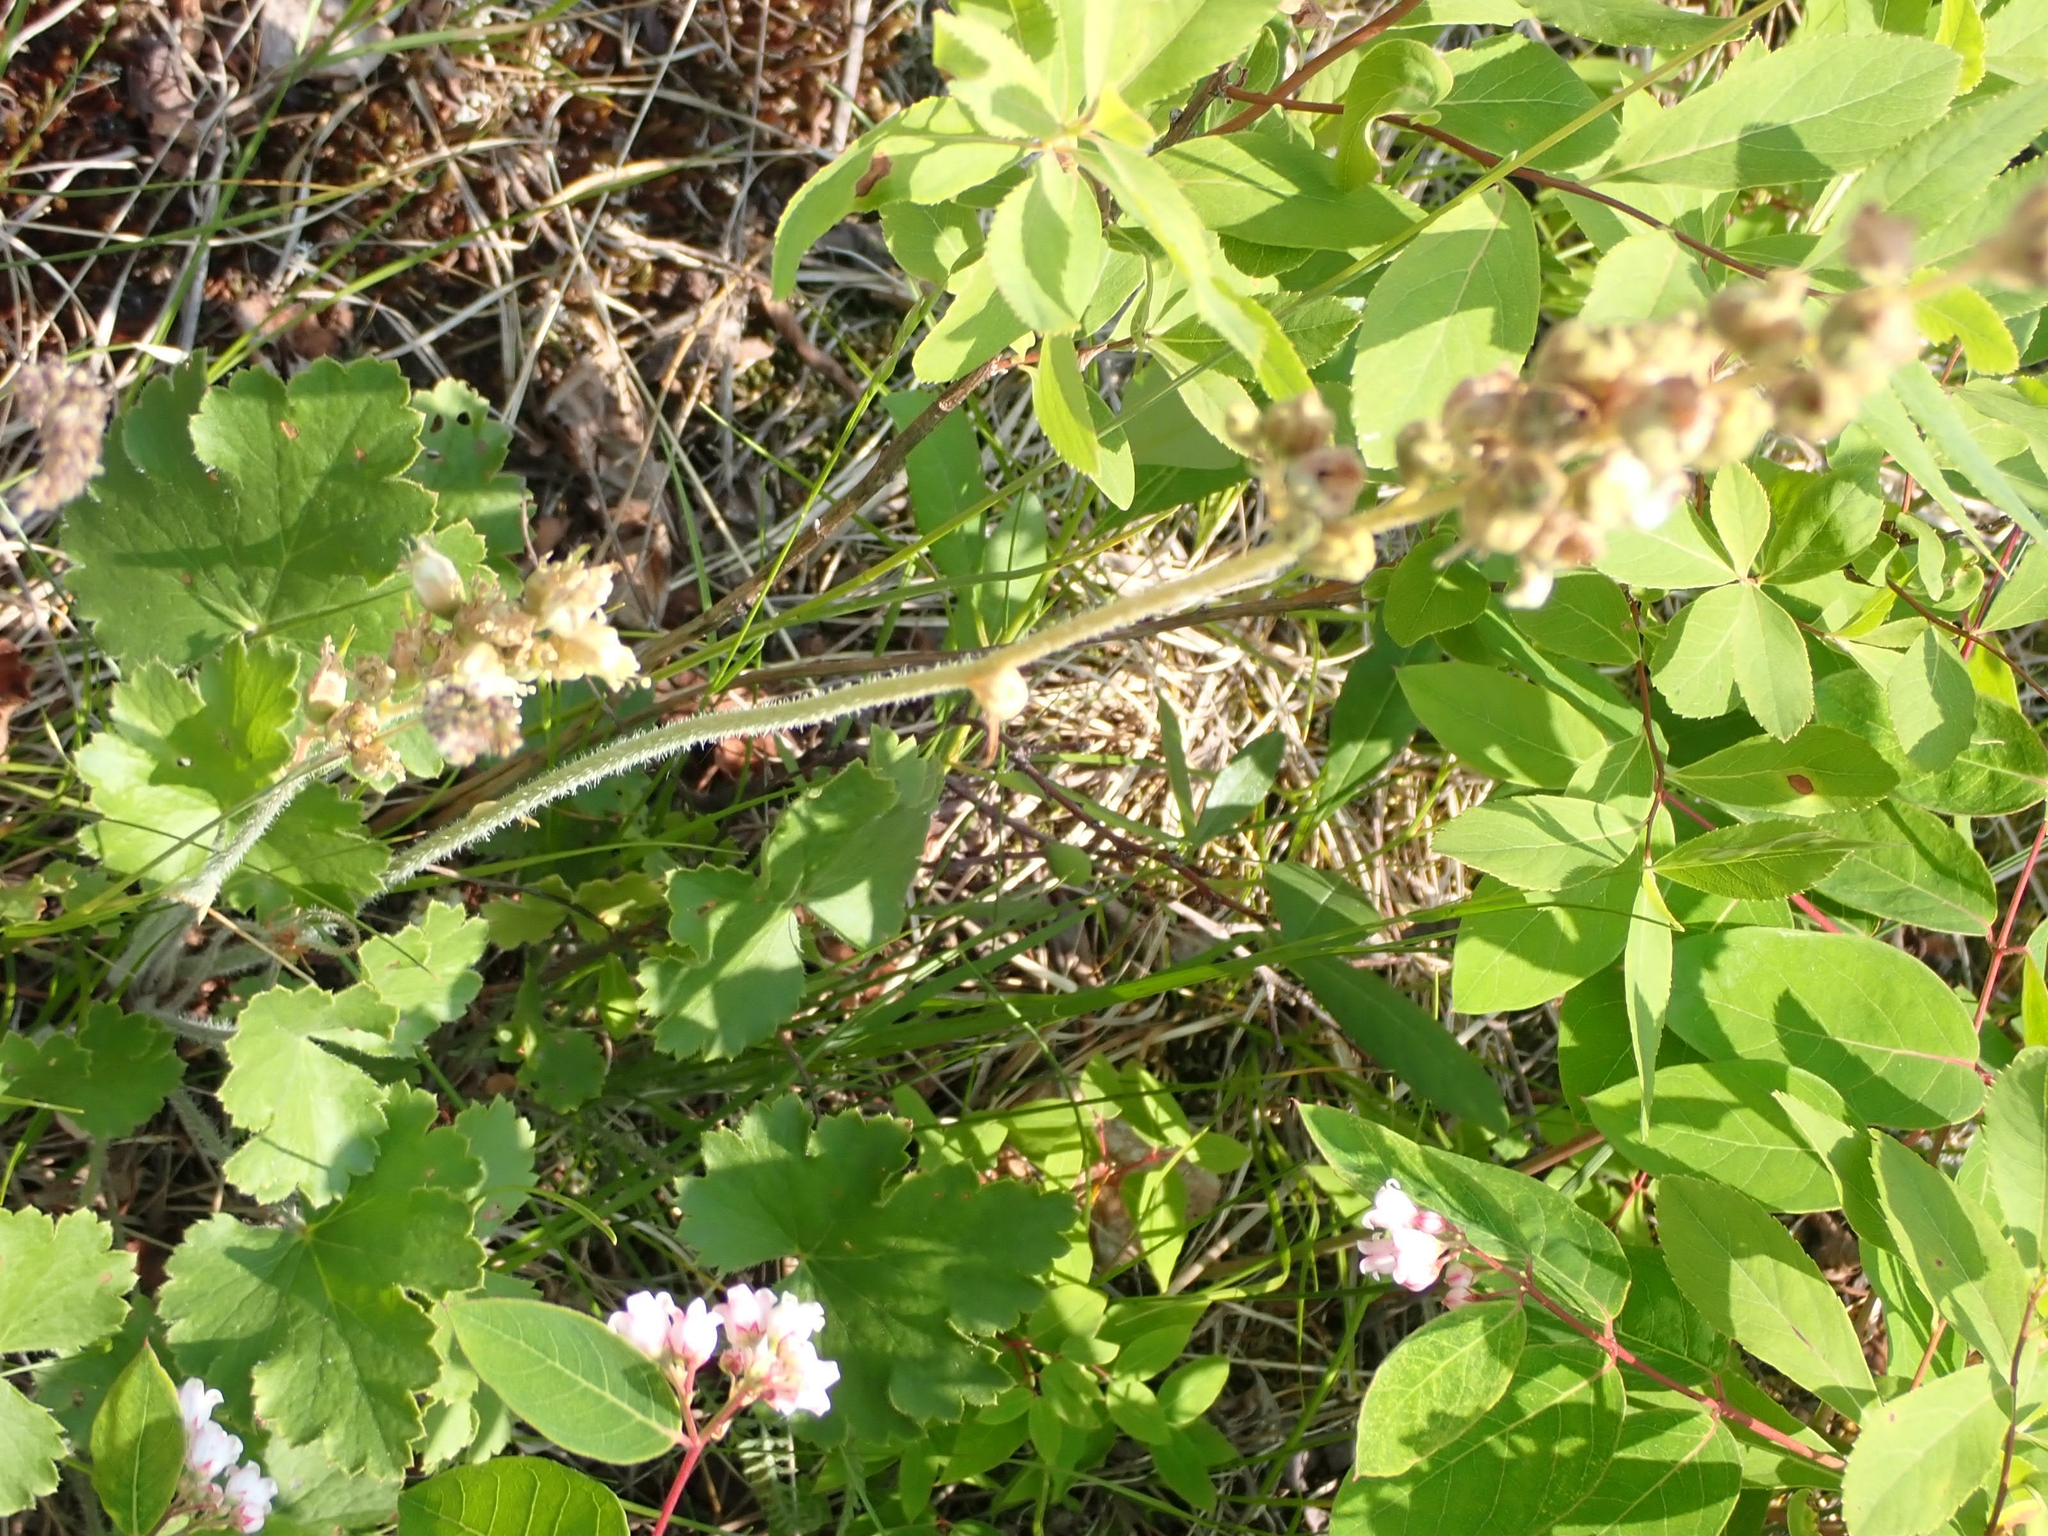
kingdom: Plantae
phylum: Tracheophyta
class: Magnoliopsida
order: Saxifragales
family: Saxifragaceae
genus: Heuchera
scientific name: Heuchera richardsonii
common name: Richardson's alumroot
